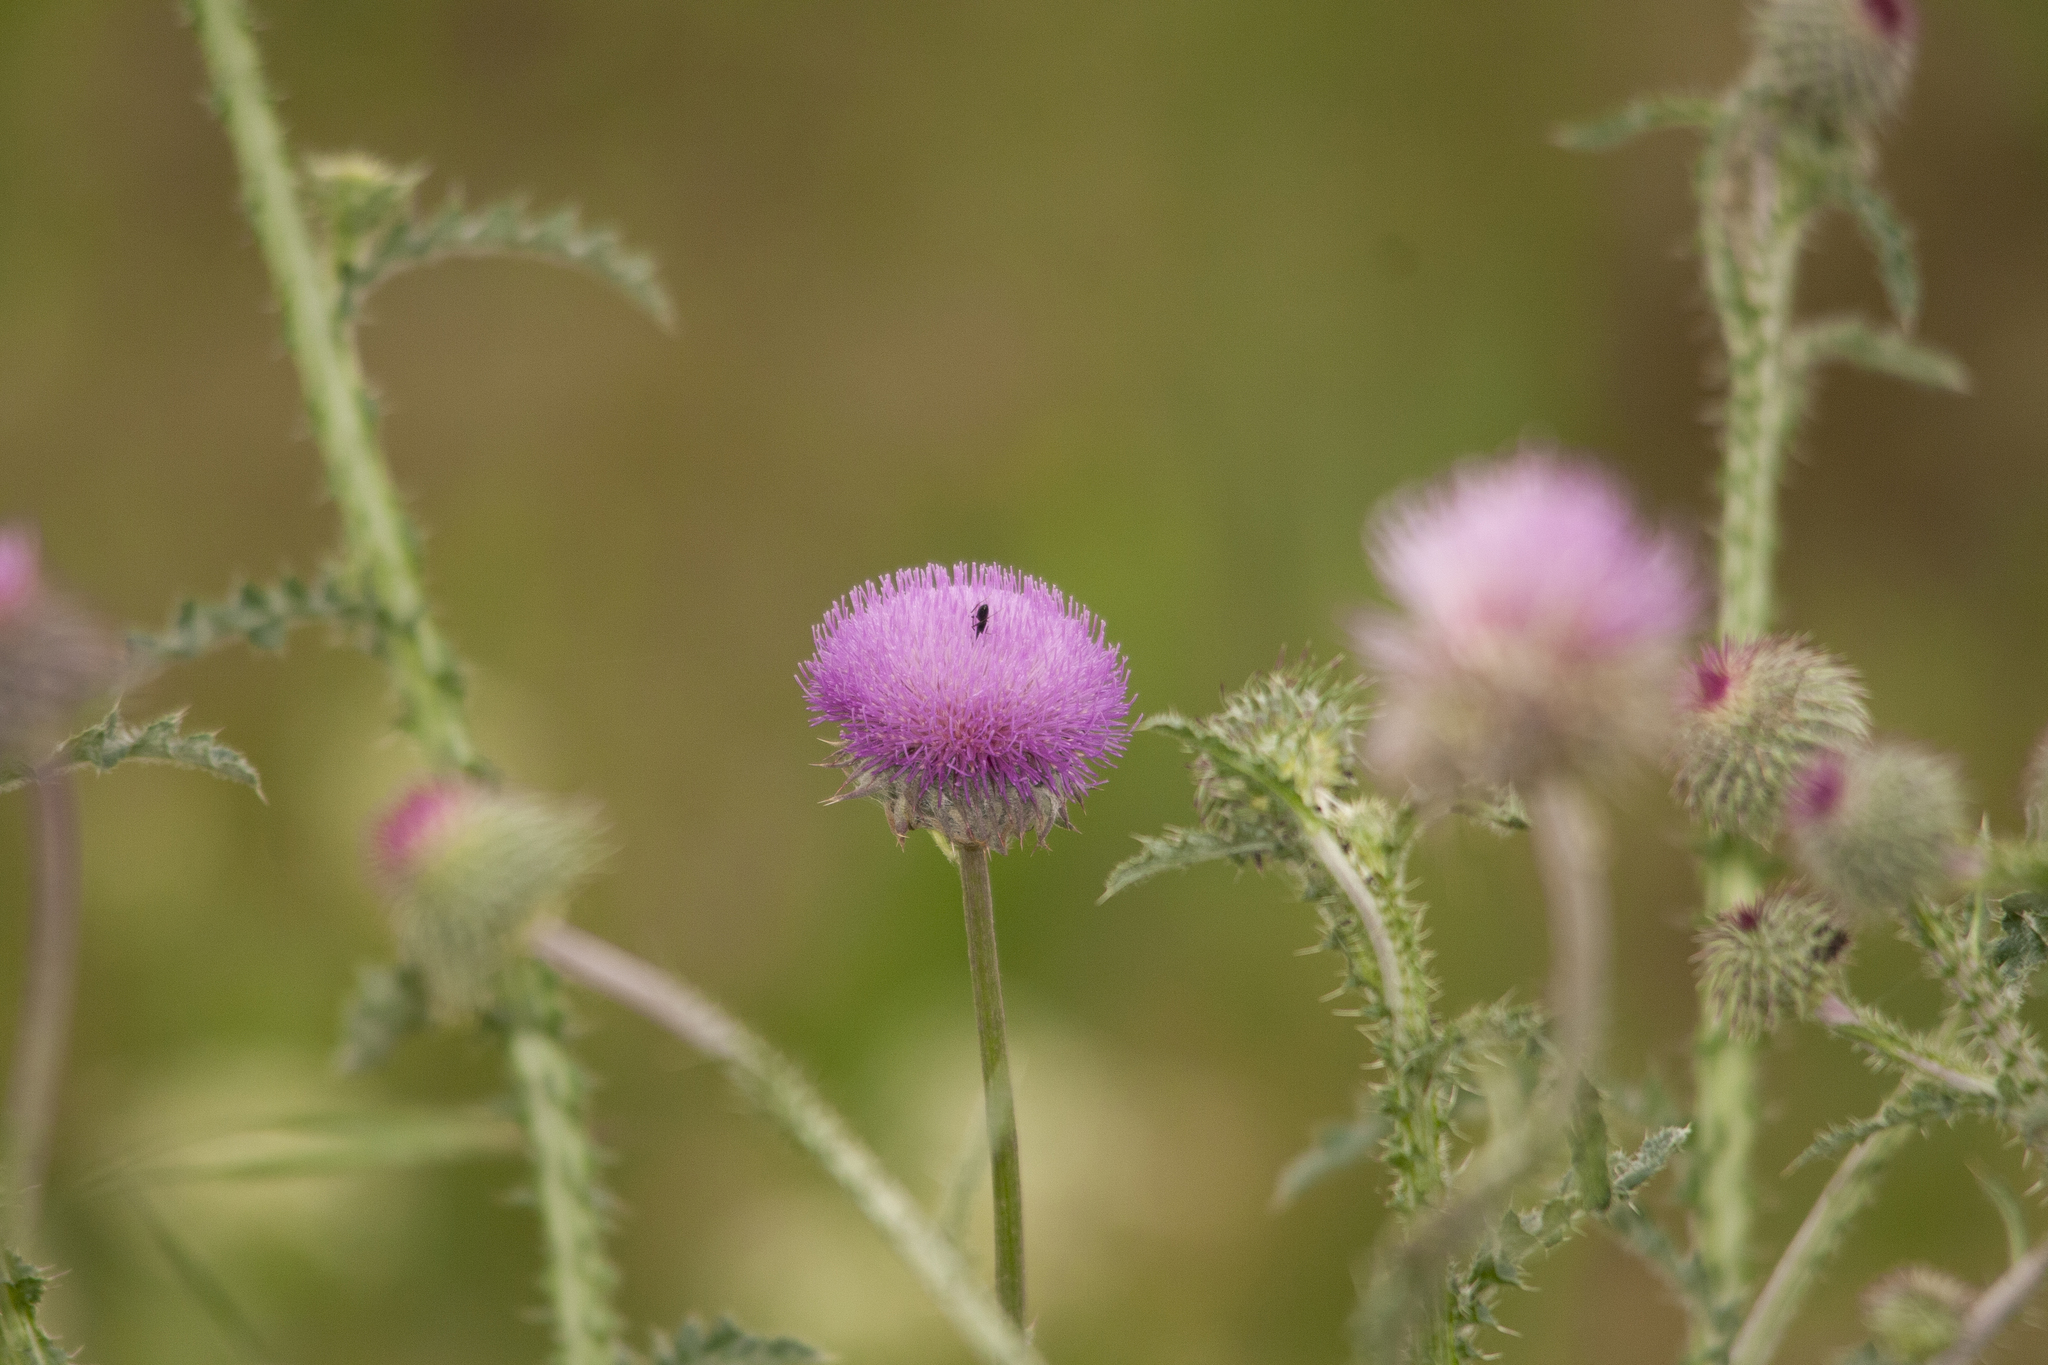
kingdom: Plantae
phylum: Tracheophyta
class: Magnoliopsida
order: Asterales
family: Asteraceae
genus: Carduus
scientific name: Carduus uncinatus
